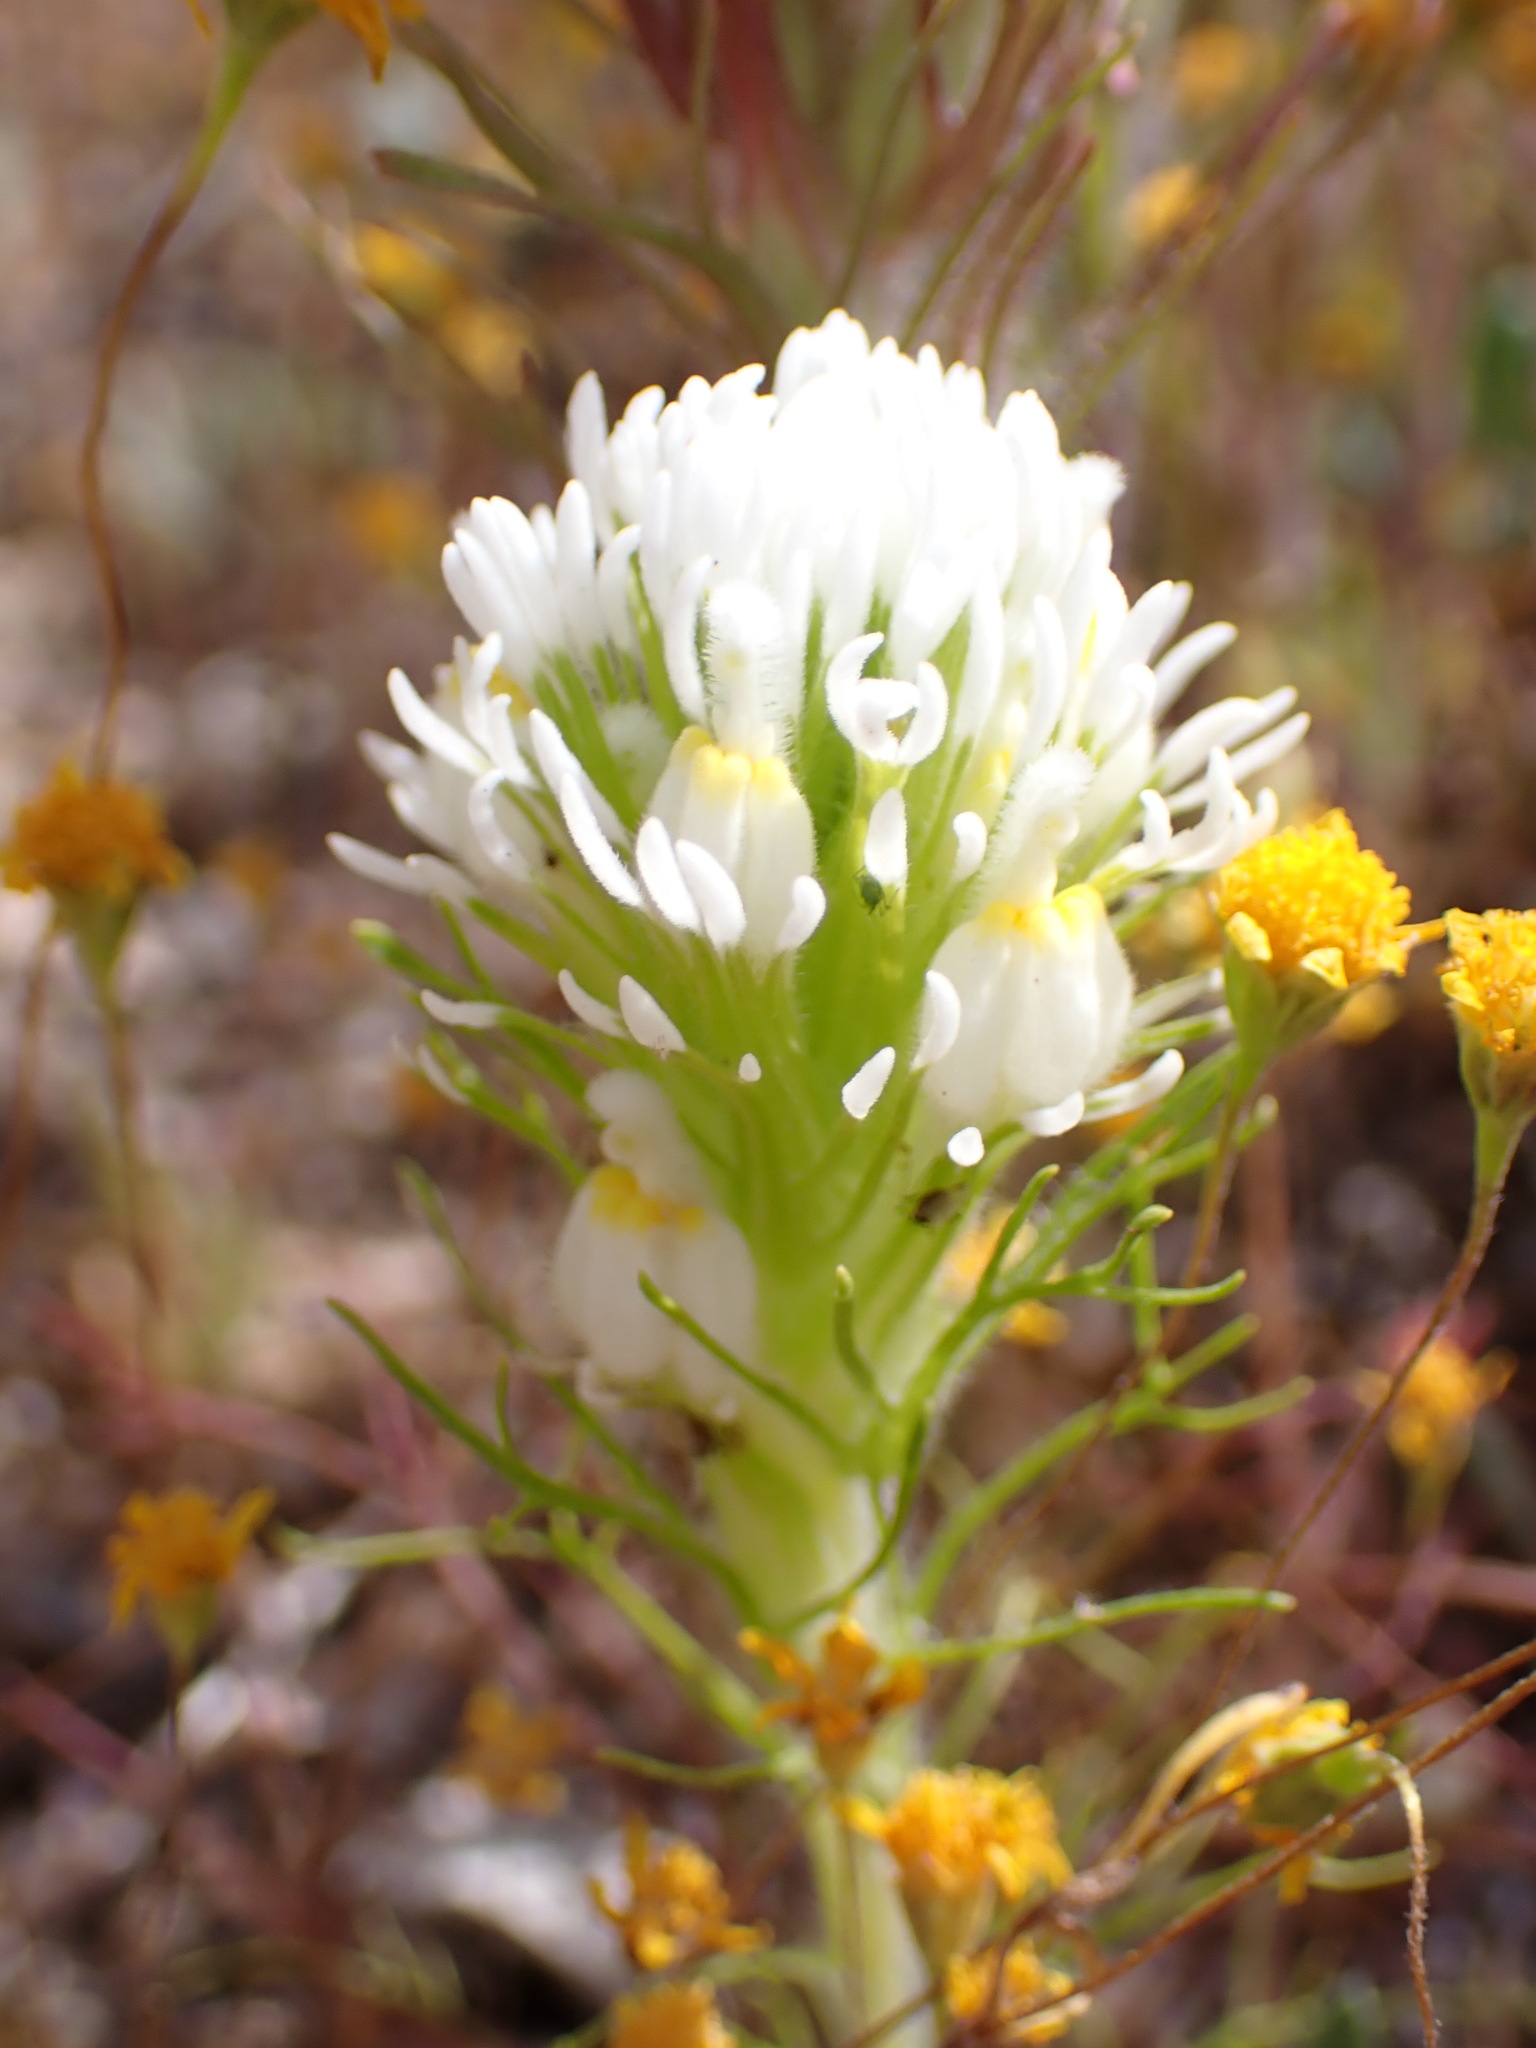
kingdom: Plantae
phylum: Tracheophyta
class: Magnoliopsida
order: Lamiales
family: Orobanchaceae
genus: Castilleja
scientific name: Castilleja exserta
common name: Purple owl-clover
